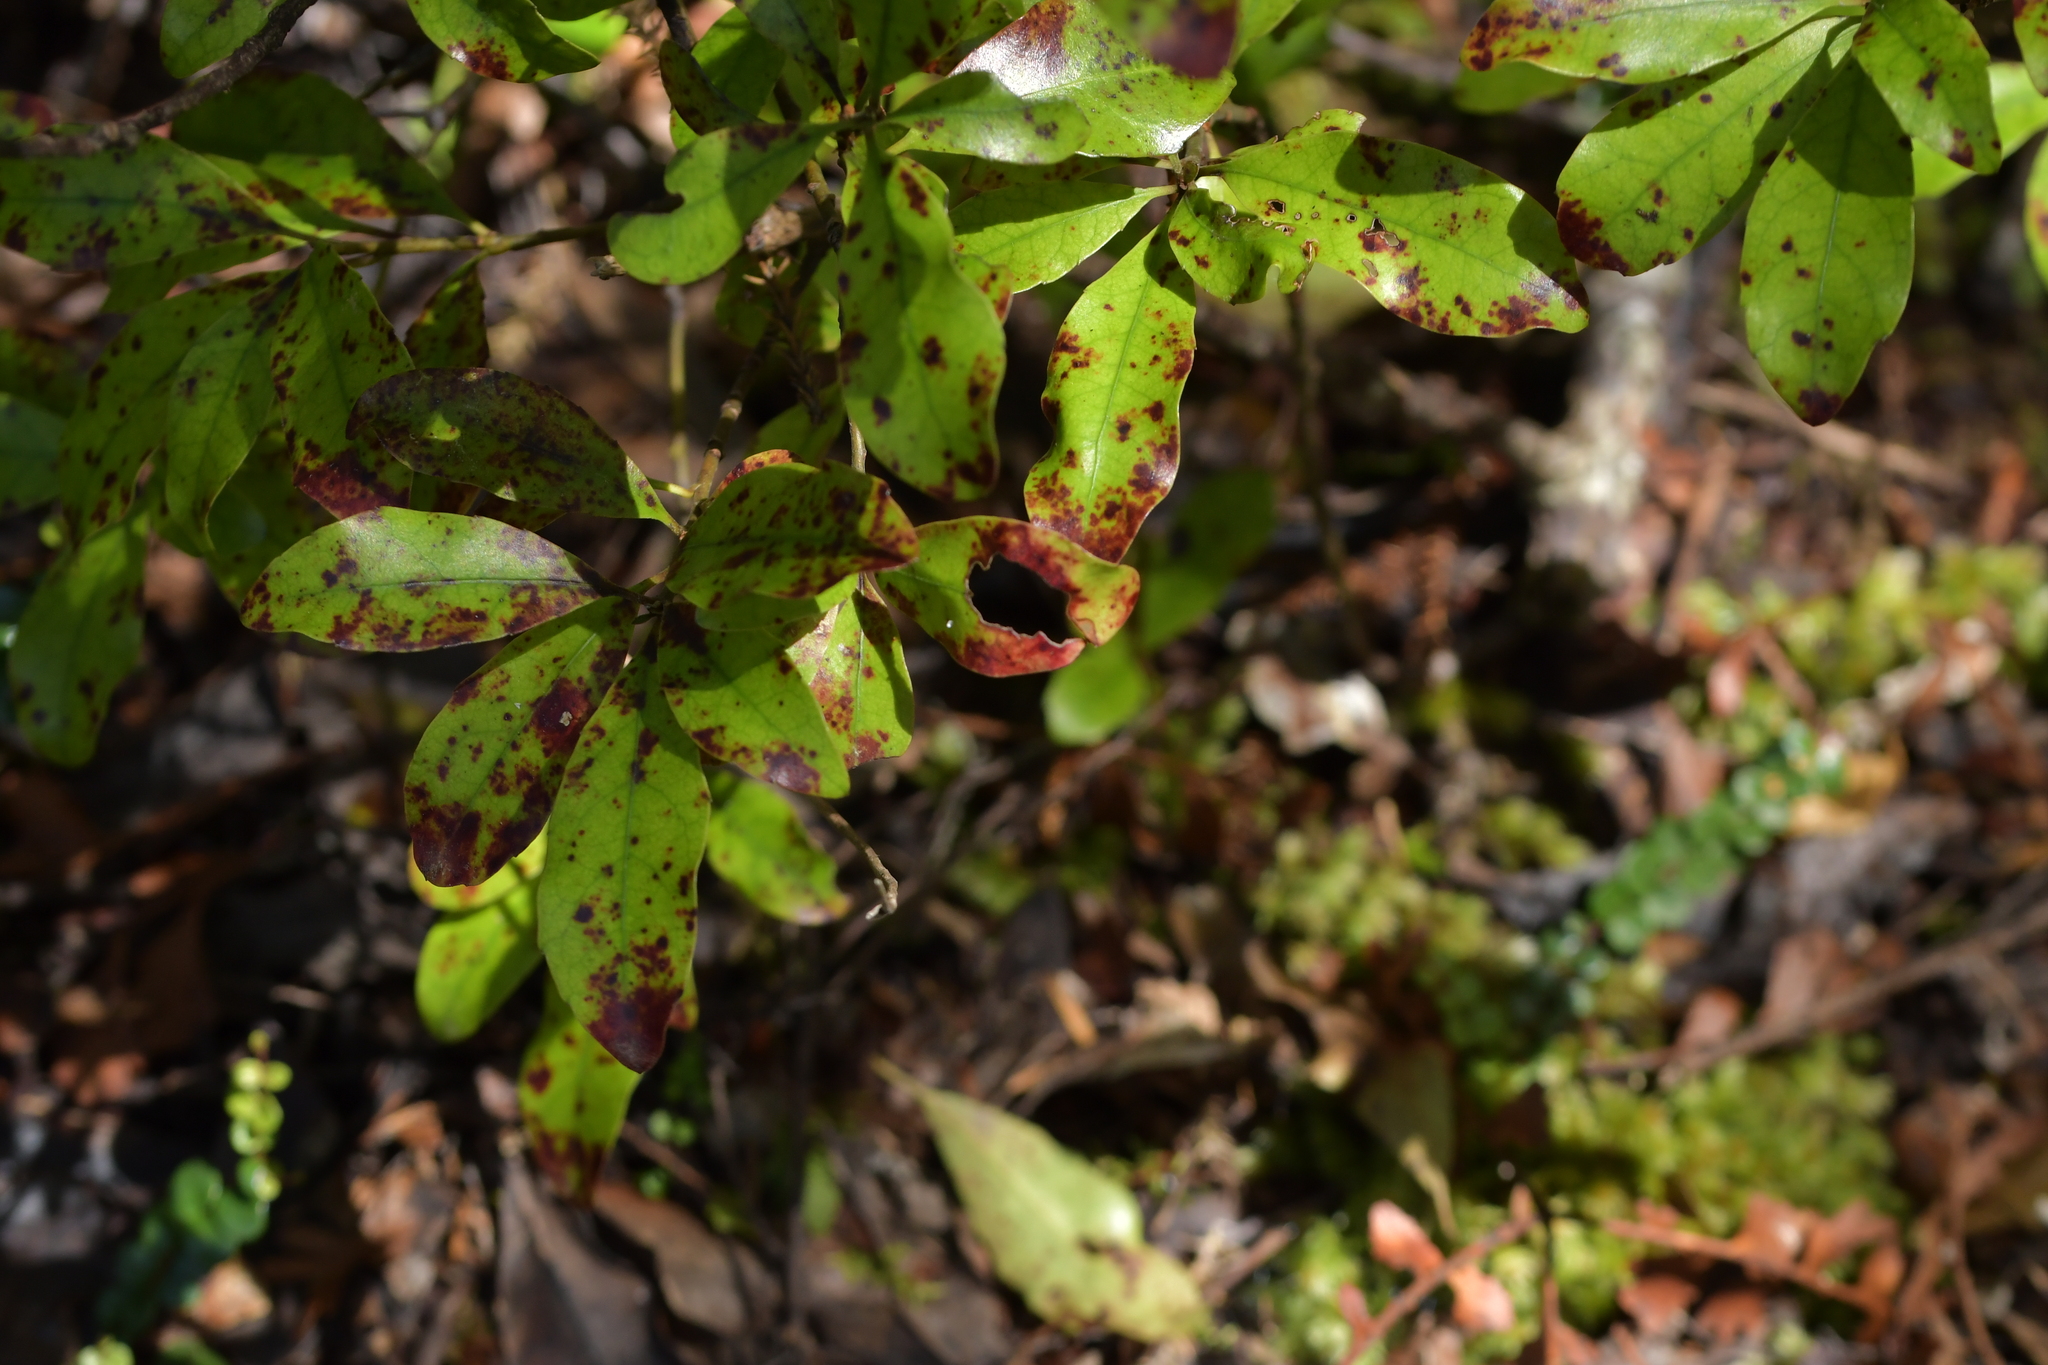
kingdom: Plantae
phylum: Tracheophyta
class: Magnoliopsida
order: Asterales
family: Alseuosmiaceae
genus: Alseuosmia
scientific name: Alseuosmia banksii
